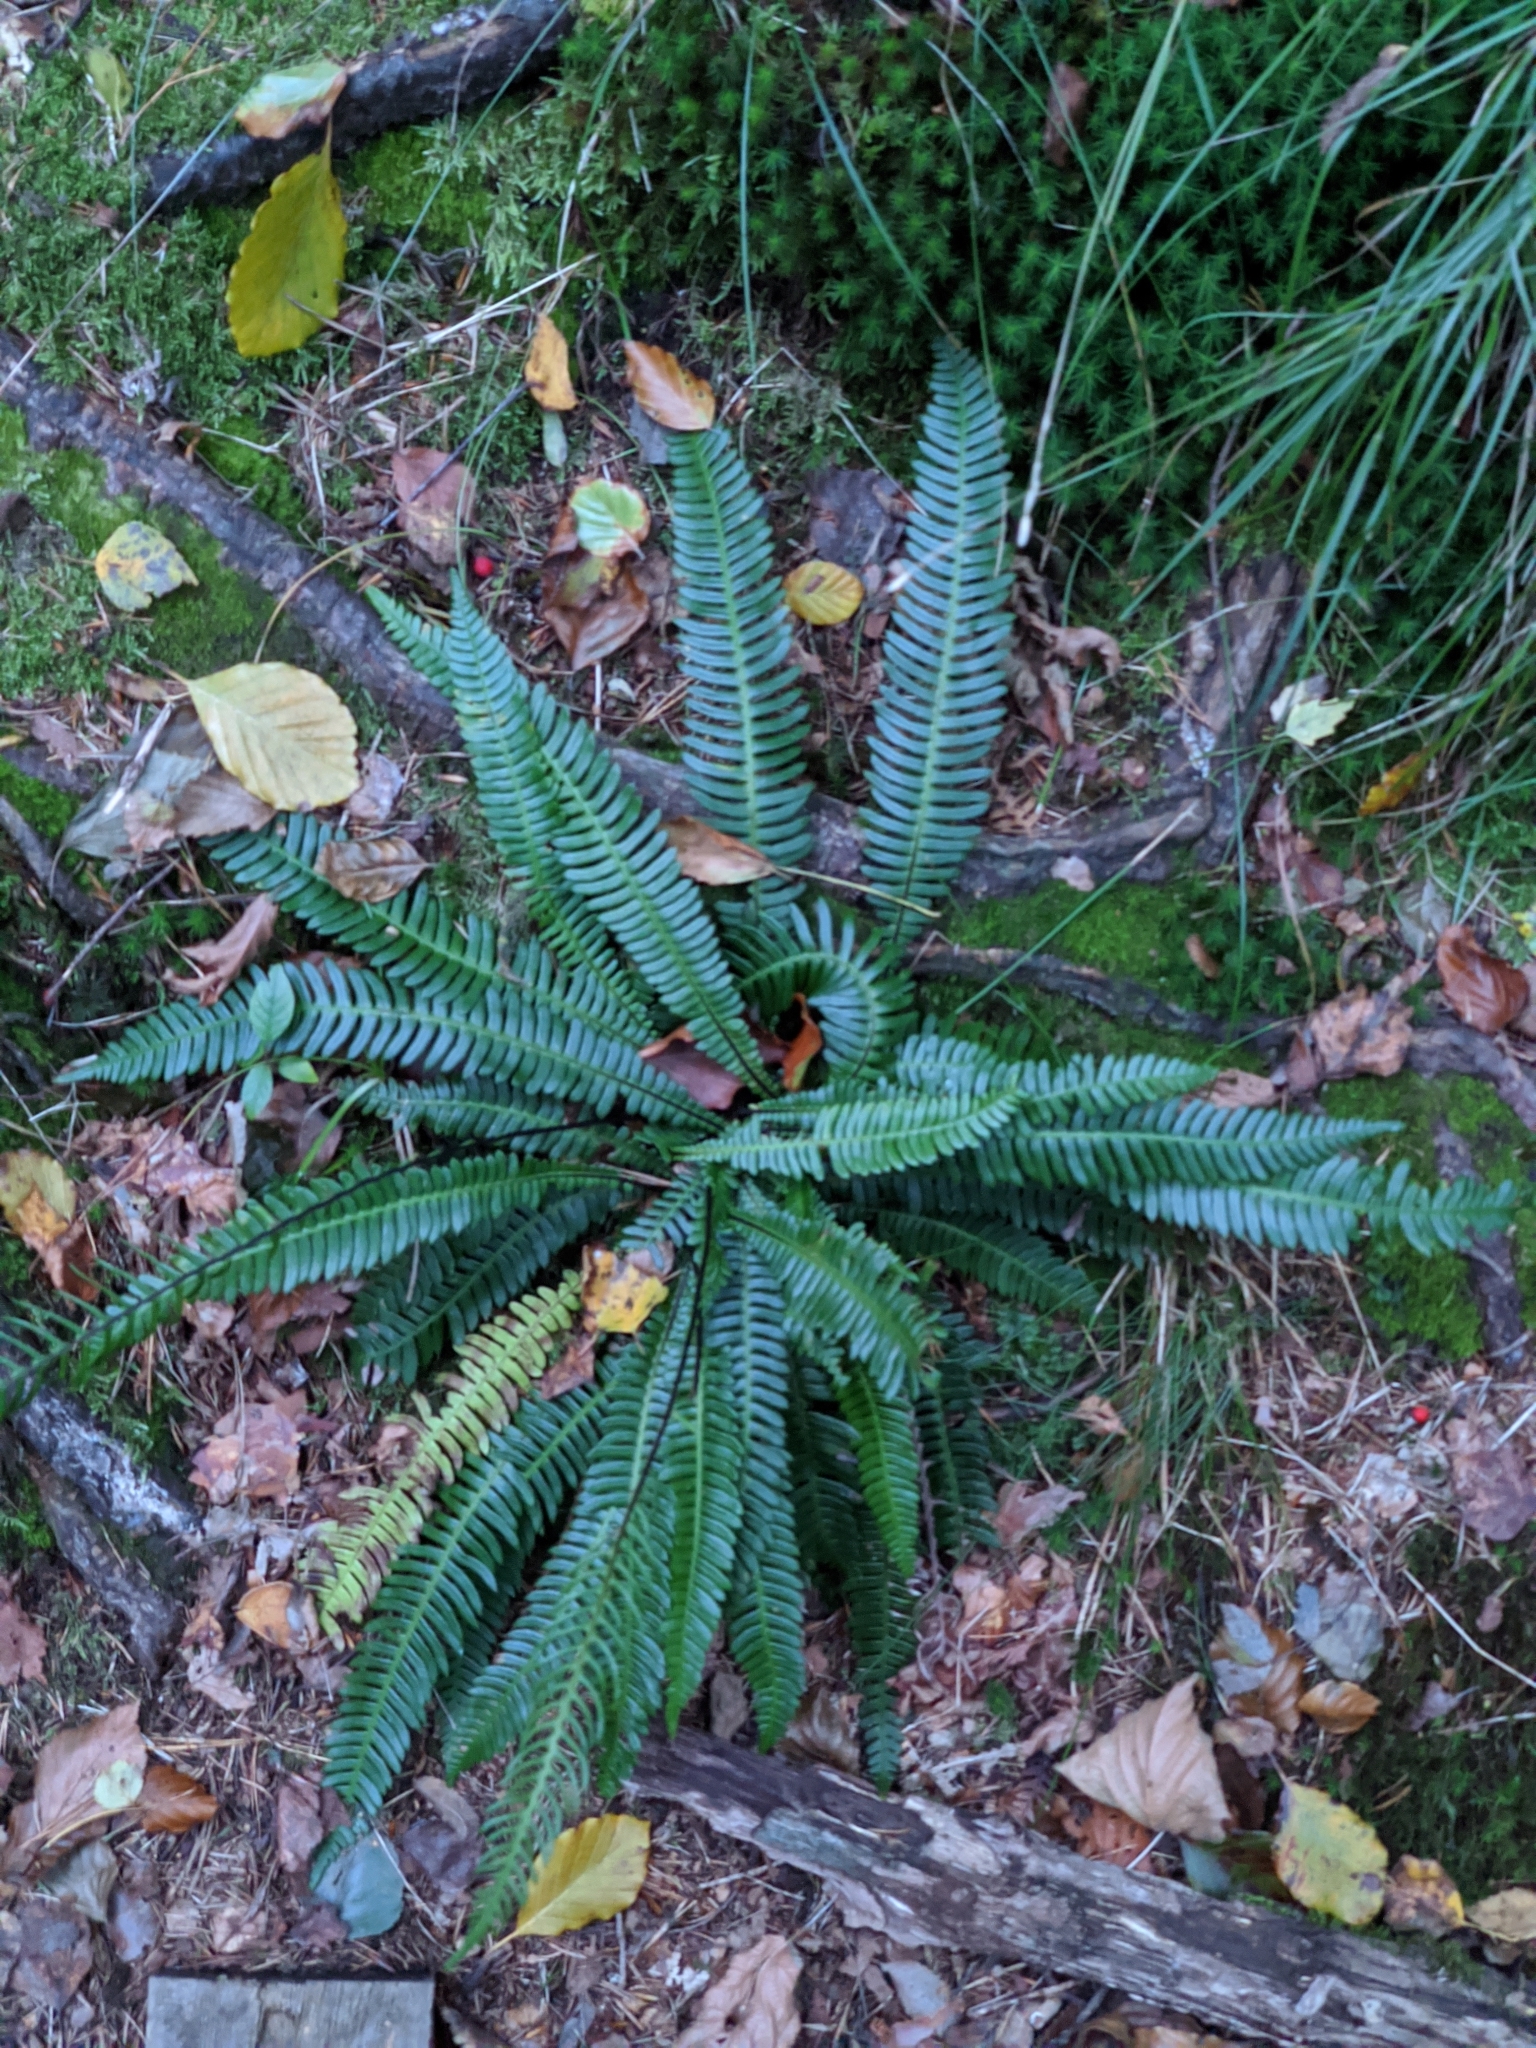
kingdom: Plantae
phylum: Tracheophyta
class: Polypodiopsida
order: Polypodiales
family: Blechnaceae
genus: Struthiopteris
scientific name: Struthiopteris spicant
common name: Deer fern
